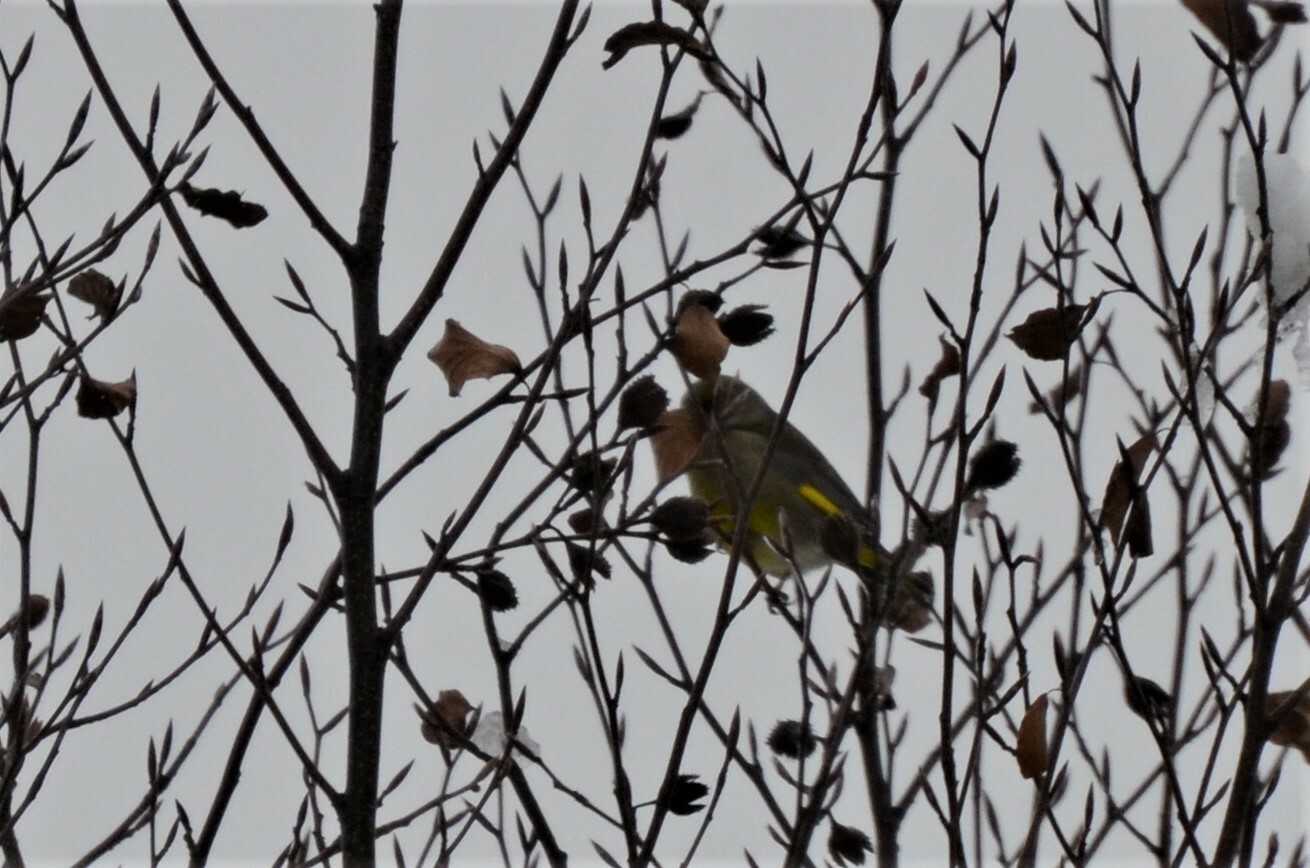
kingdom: Plantae
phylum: Tracheophyta
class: Liliopsida
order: Poales
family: Poaceae
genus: Chloris
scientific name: Chloris chloris
